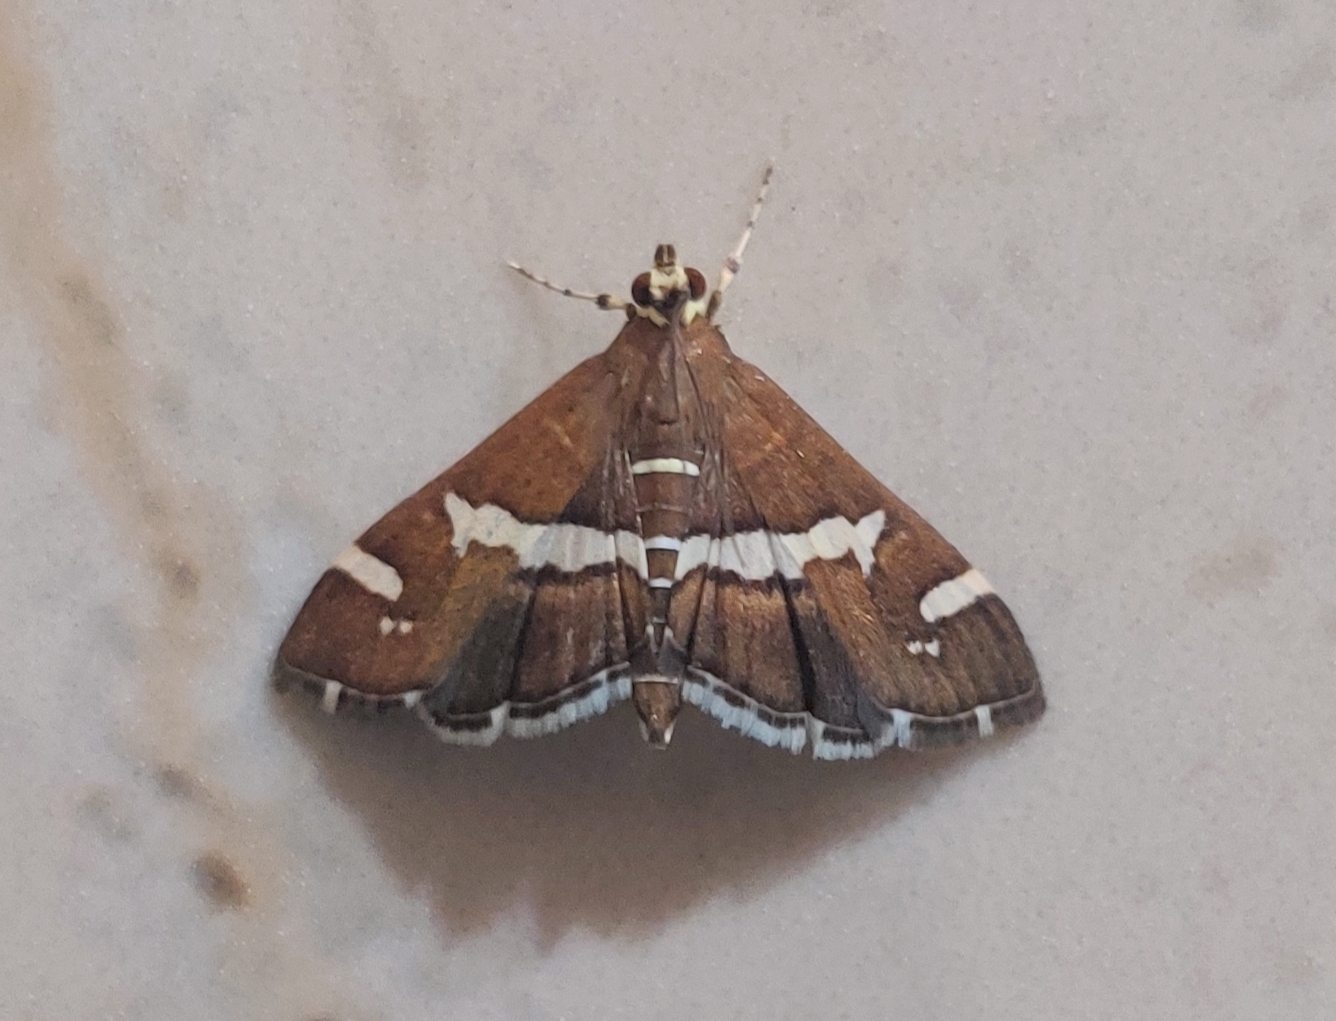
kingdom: Animalia
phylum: Arthropoda
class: Insecta
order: Lepidoptera
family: Crambidae
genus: Spoladea
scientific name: Spoladea recurvalis
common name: Beet webworm moth
